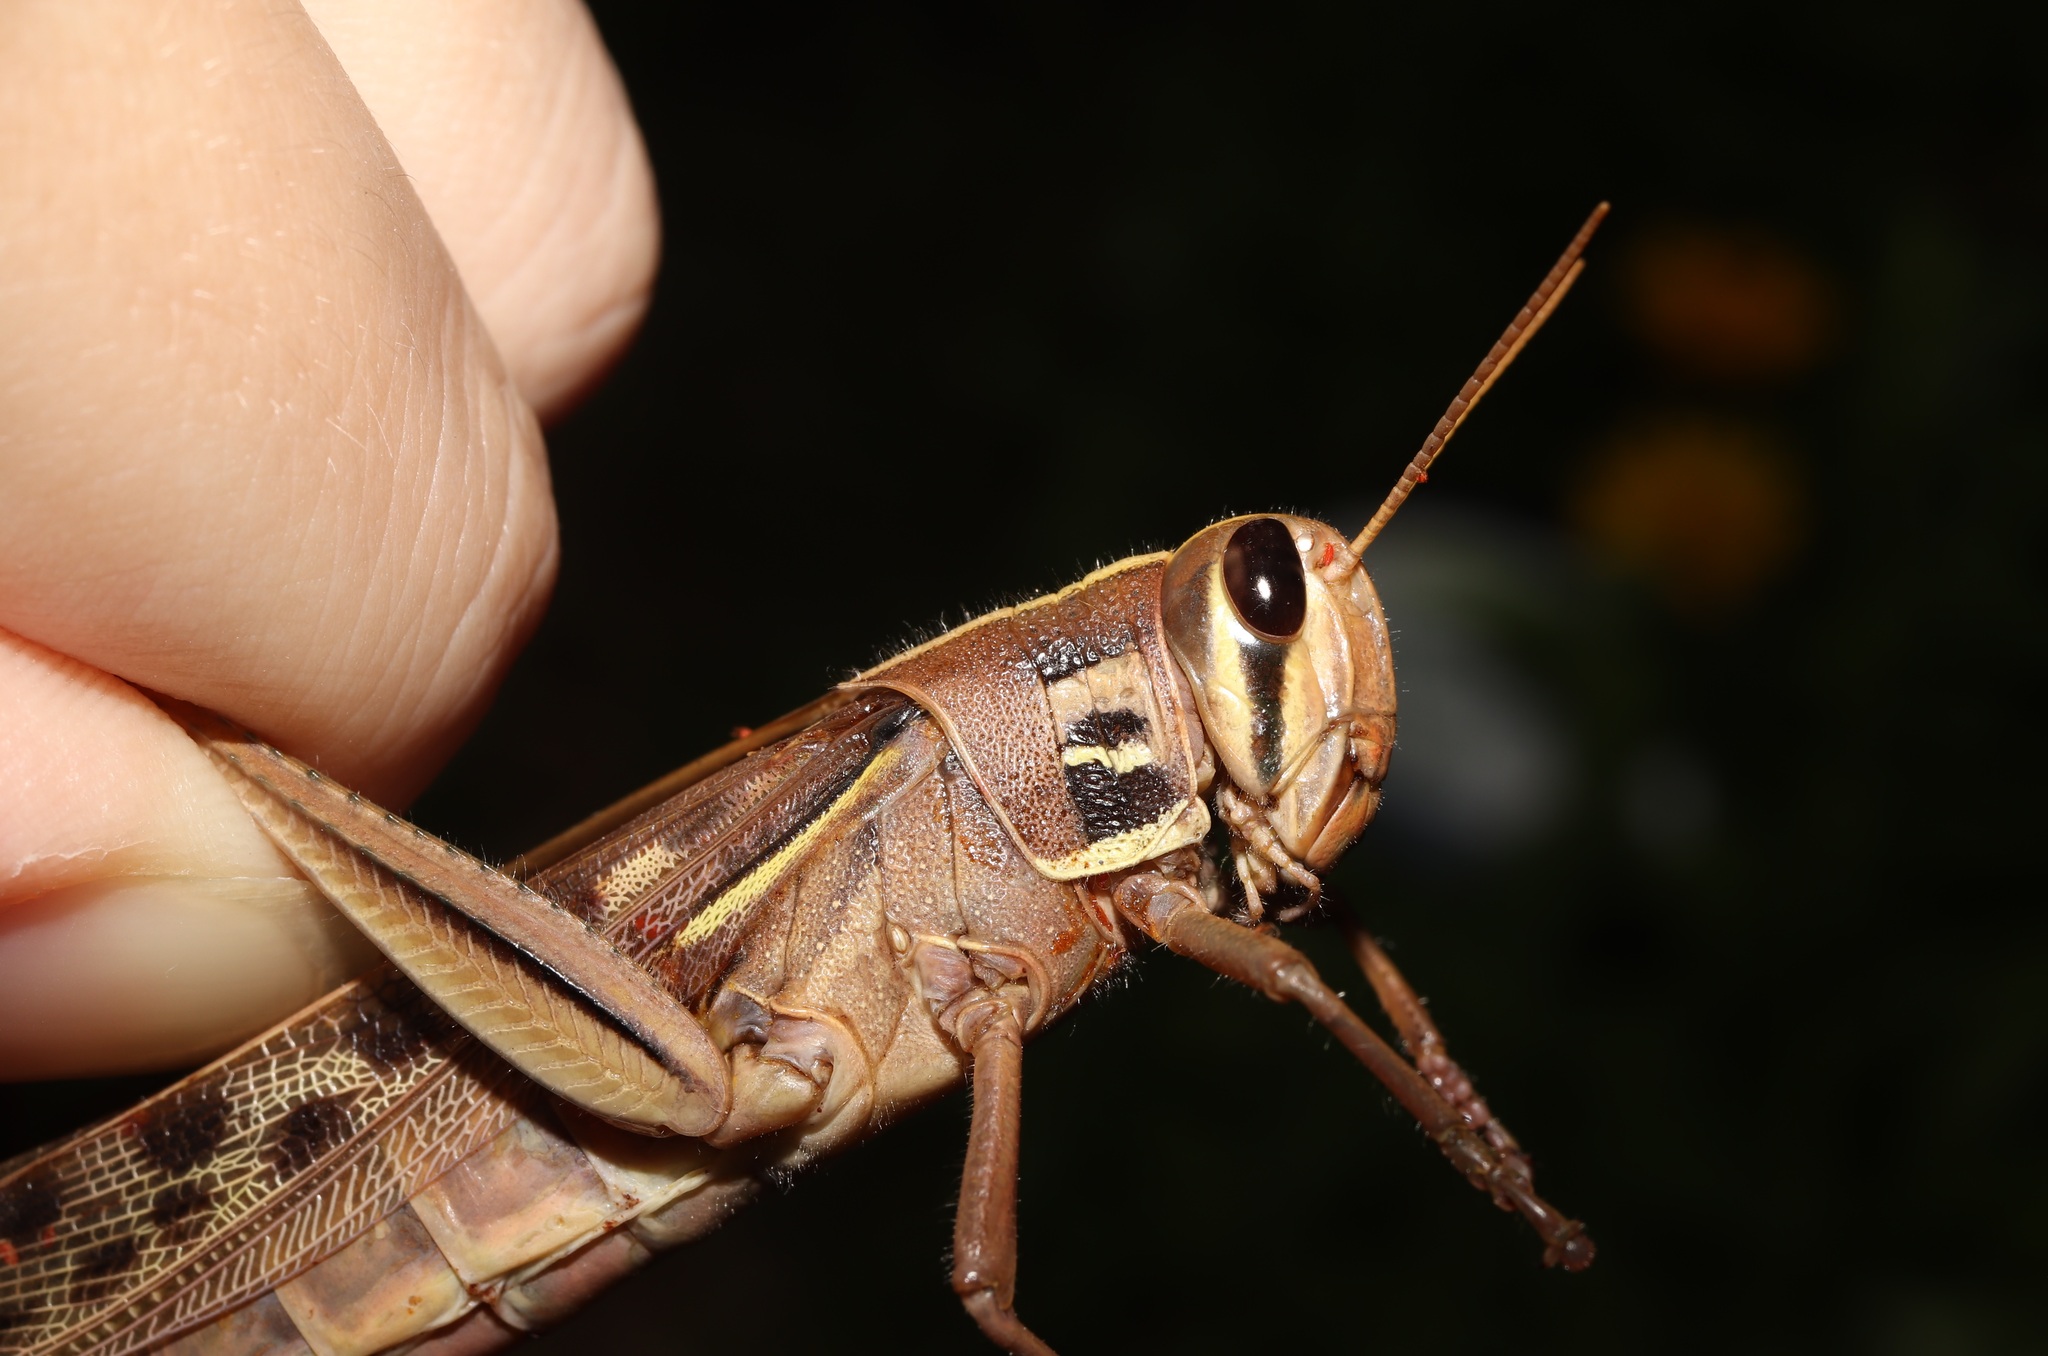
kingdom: Animalia
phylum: Arthropoda
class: Insecta
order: Orthoptera
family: Acrididae
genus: Patanga
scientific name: Patanga japonica
